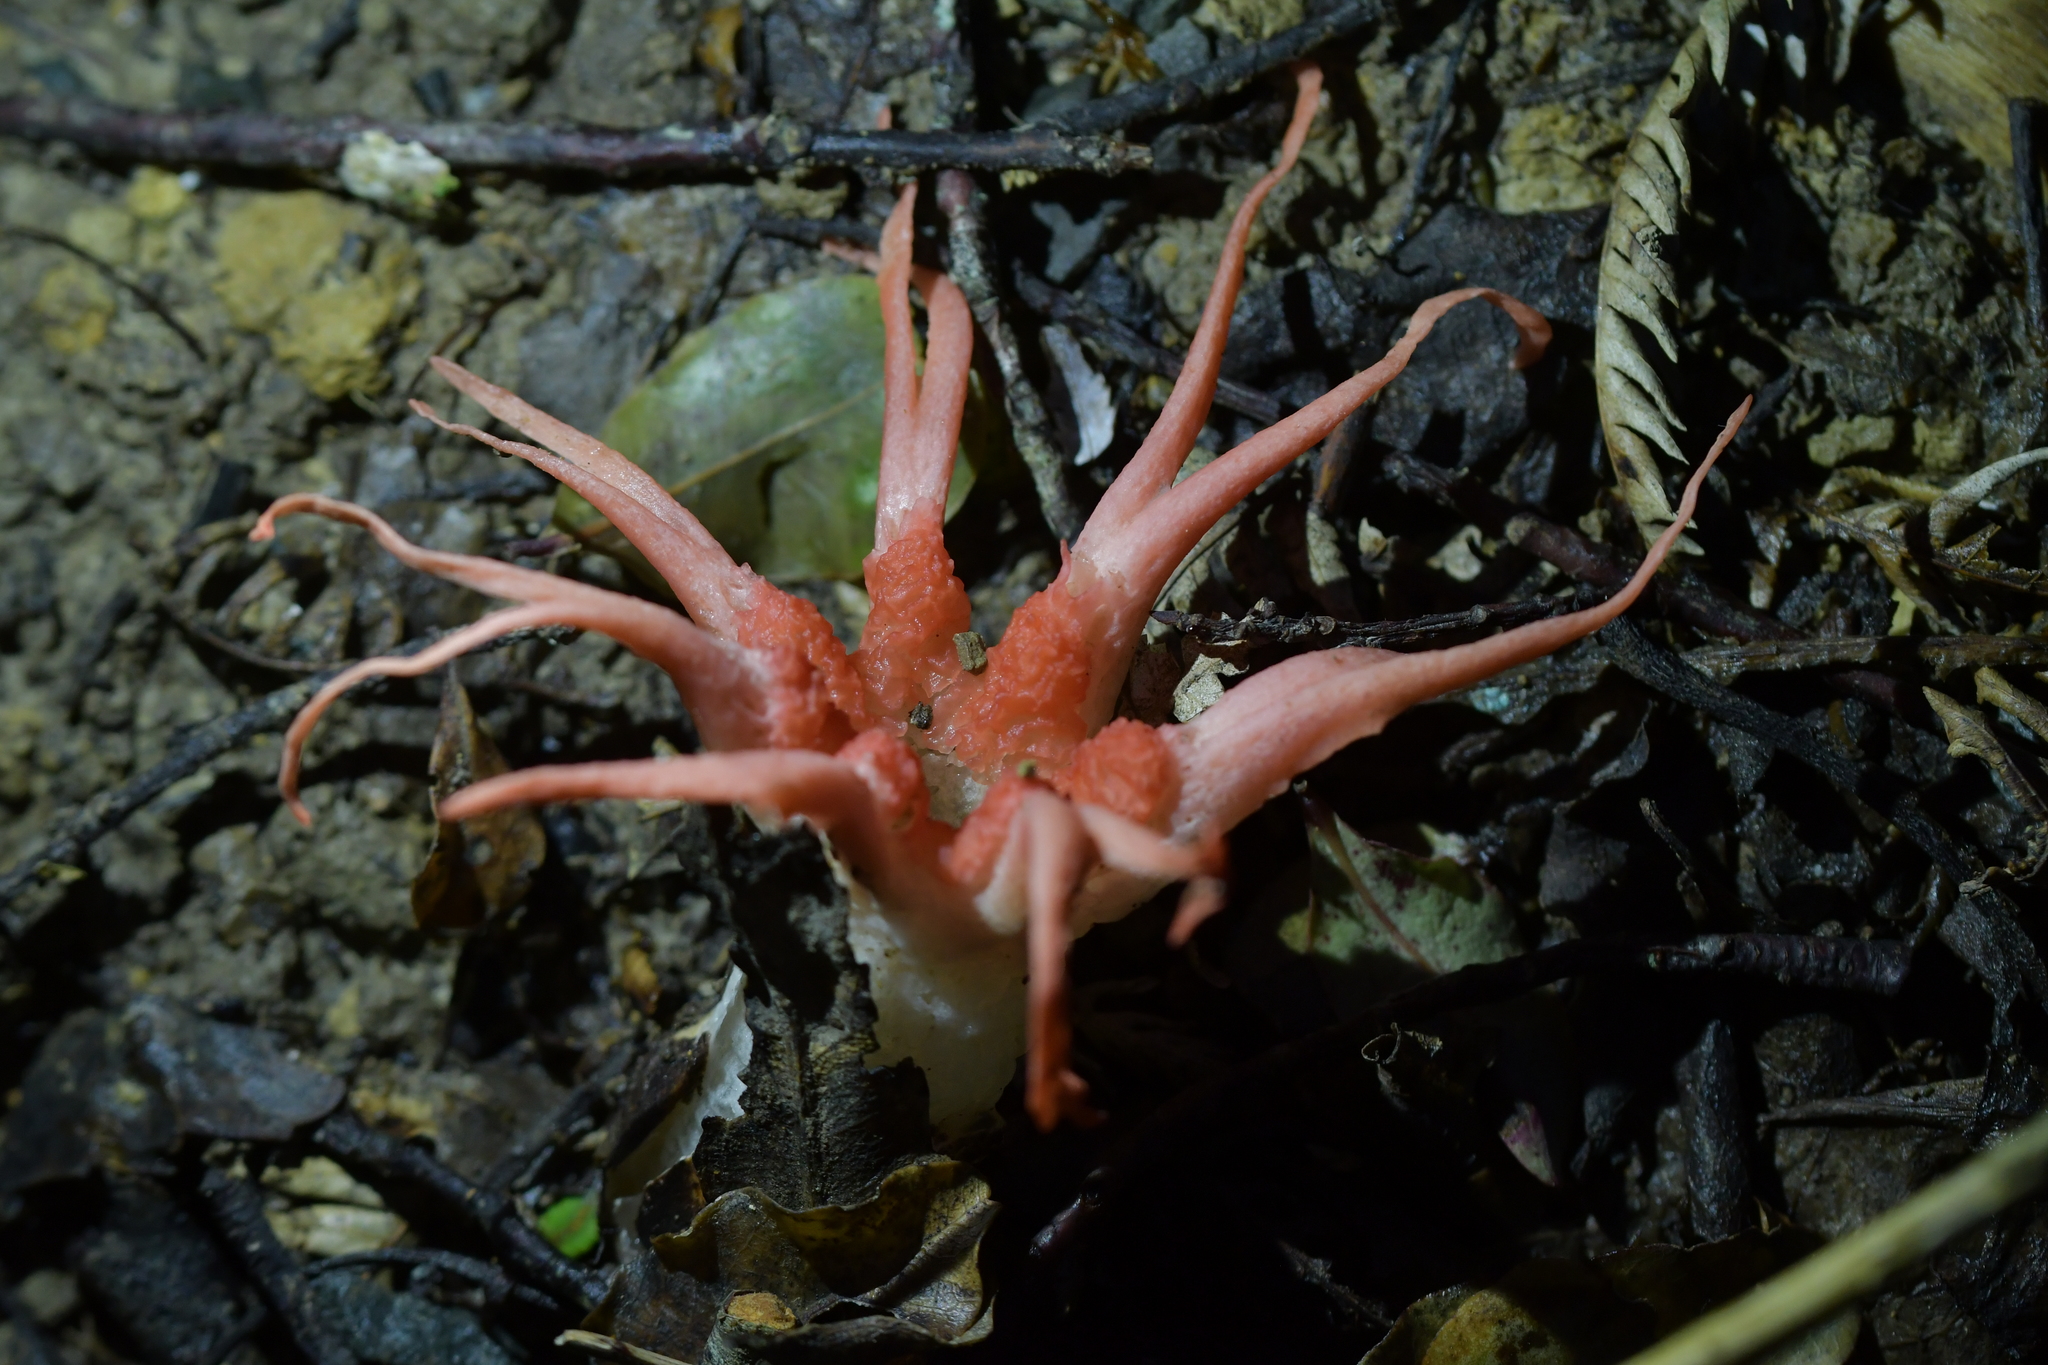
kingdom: Fungi
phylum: Basidiomycota
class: Agaricomycetes
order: Phallales
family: Phallaceae
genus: Aseroe
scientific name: Aseroe rubra
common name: Starfish fungus
